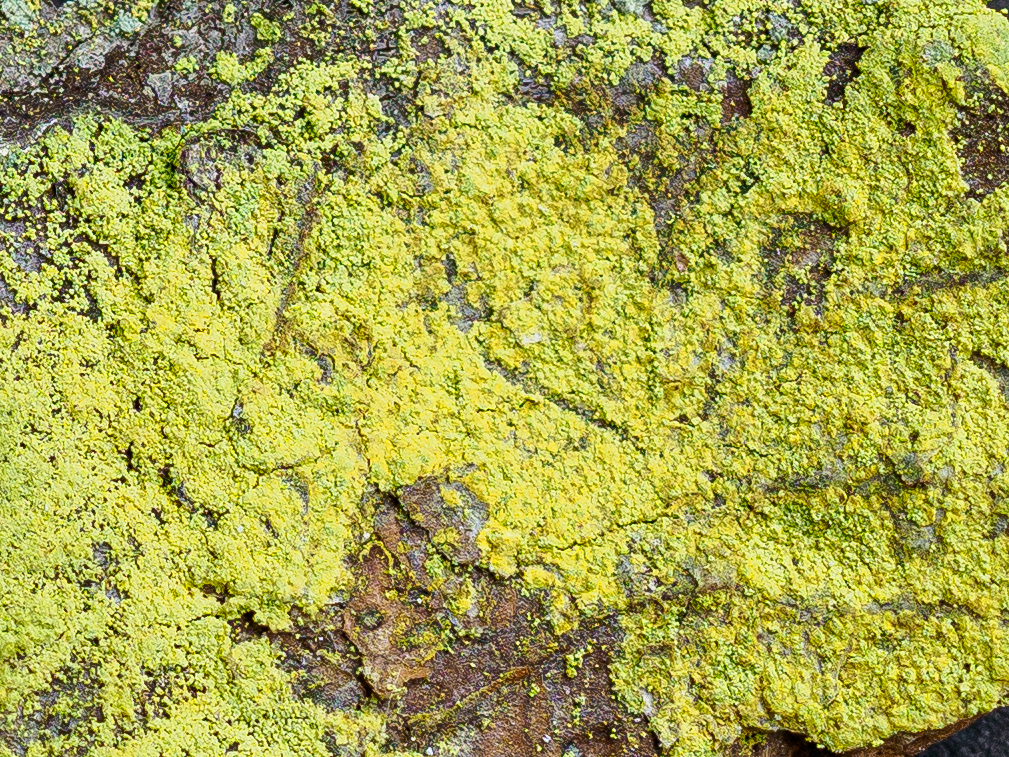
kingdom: Fungi
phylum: Ascomycota
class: Arthoniomycetes
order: Arthoniales
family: Chrysotrichaceae
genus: Chrysothrix
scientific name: Chrysothrix candelaris
